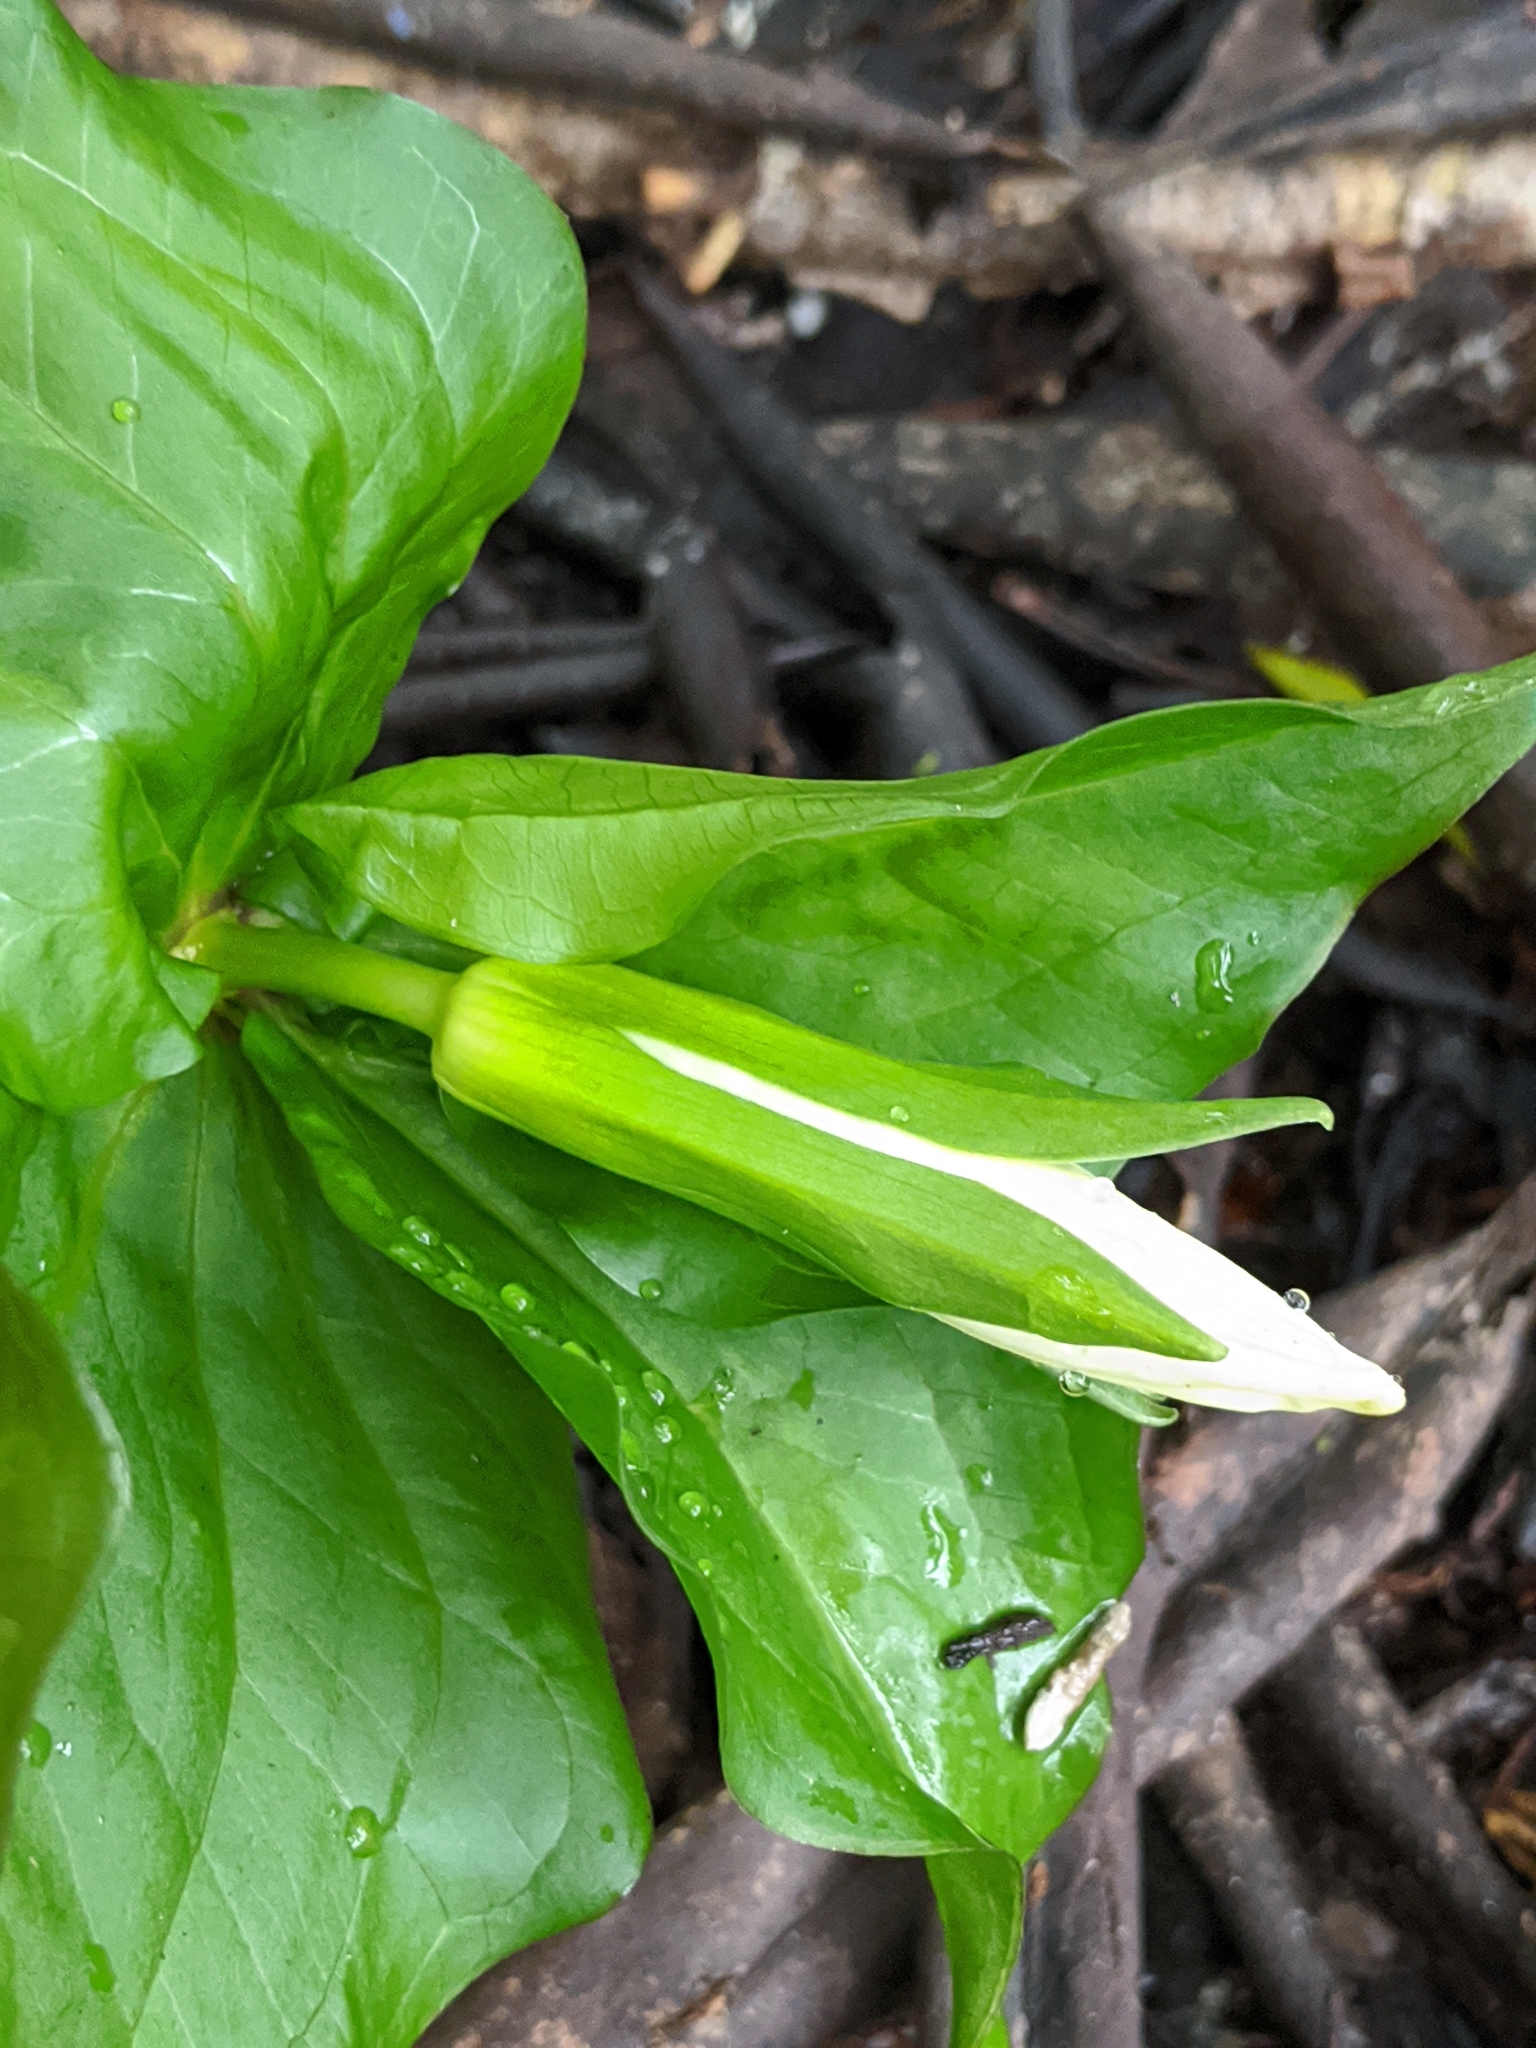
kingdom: Plantae
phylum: Tracheophyta
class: Liliopsida
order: Liliales
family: Melanthiaceae
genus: Trillium
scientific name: Trillium ovatum
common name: Pacific trillium
